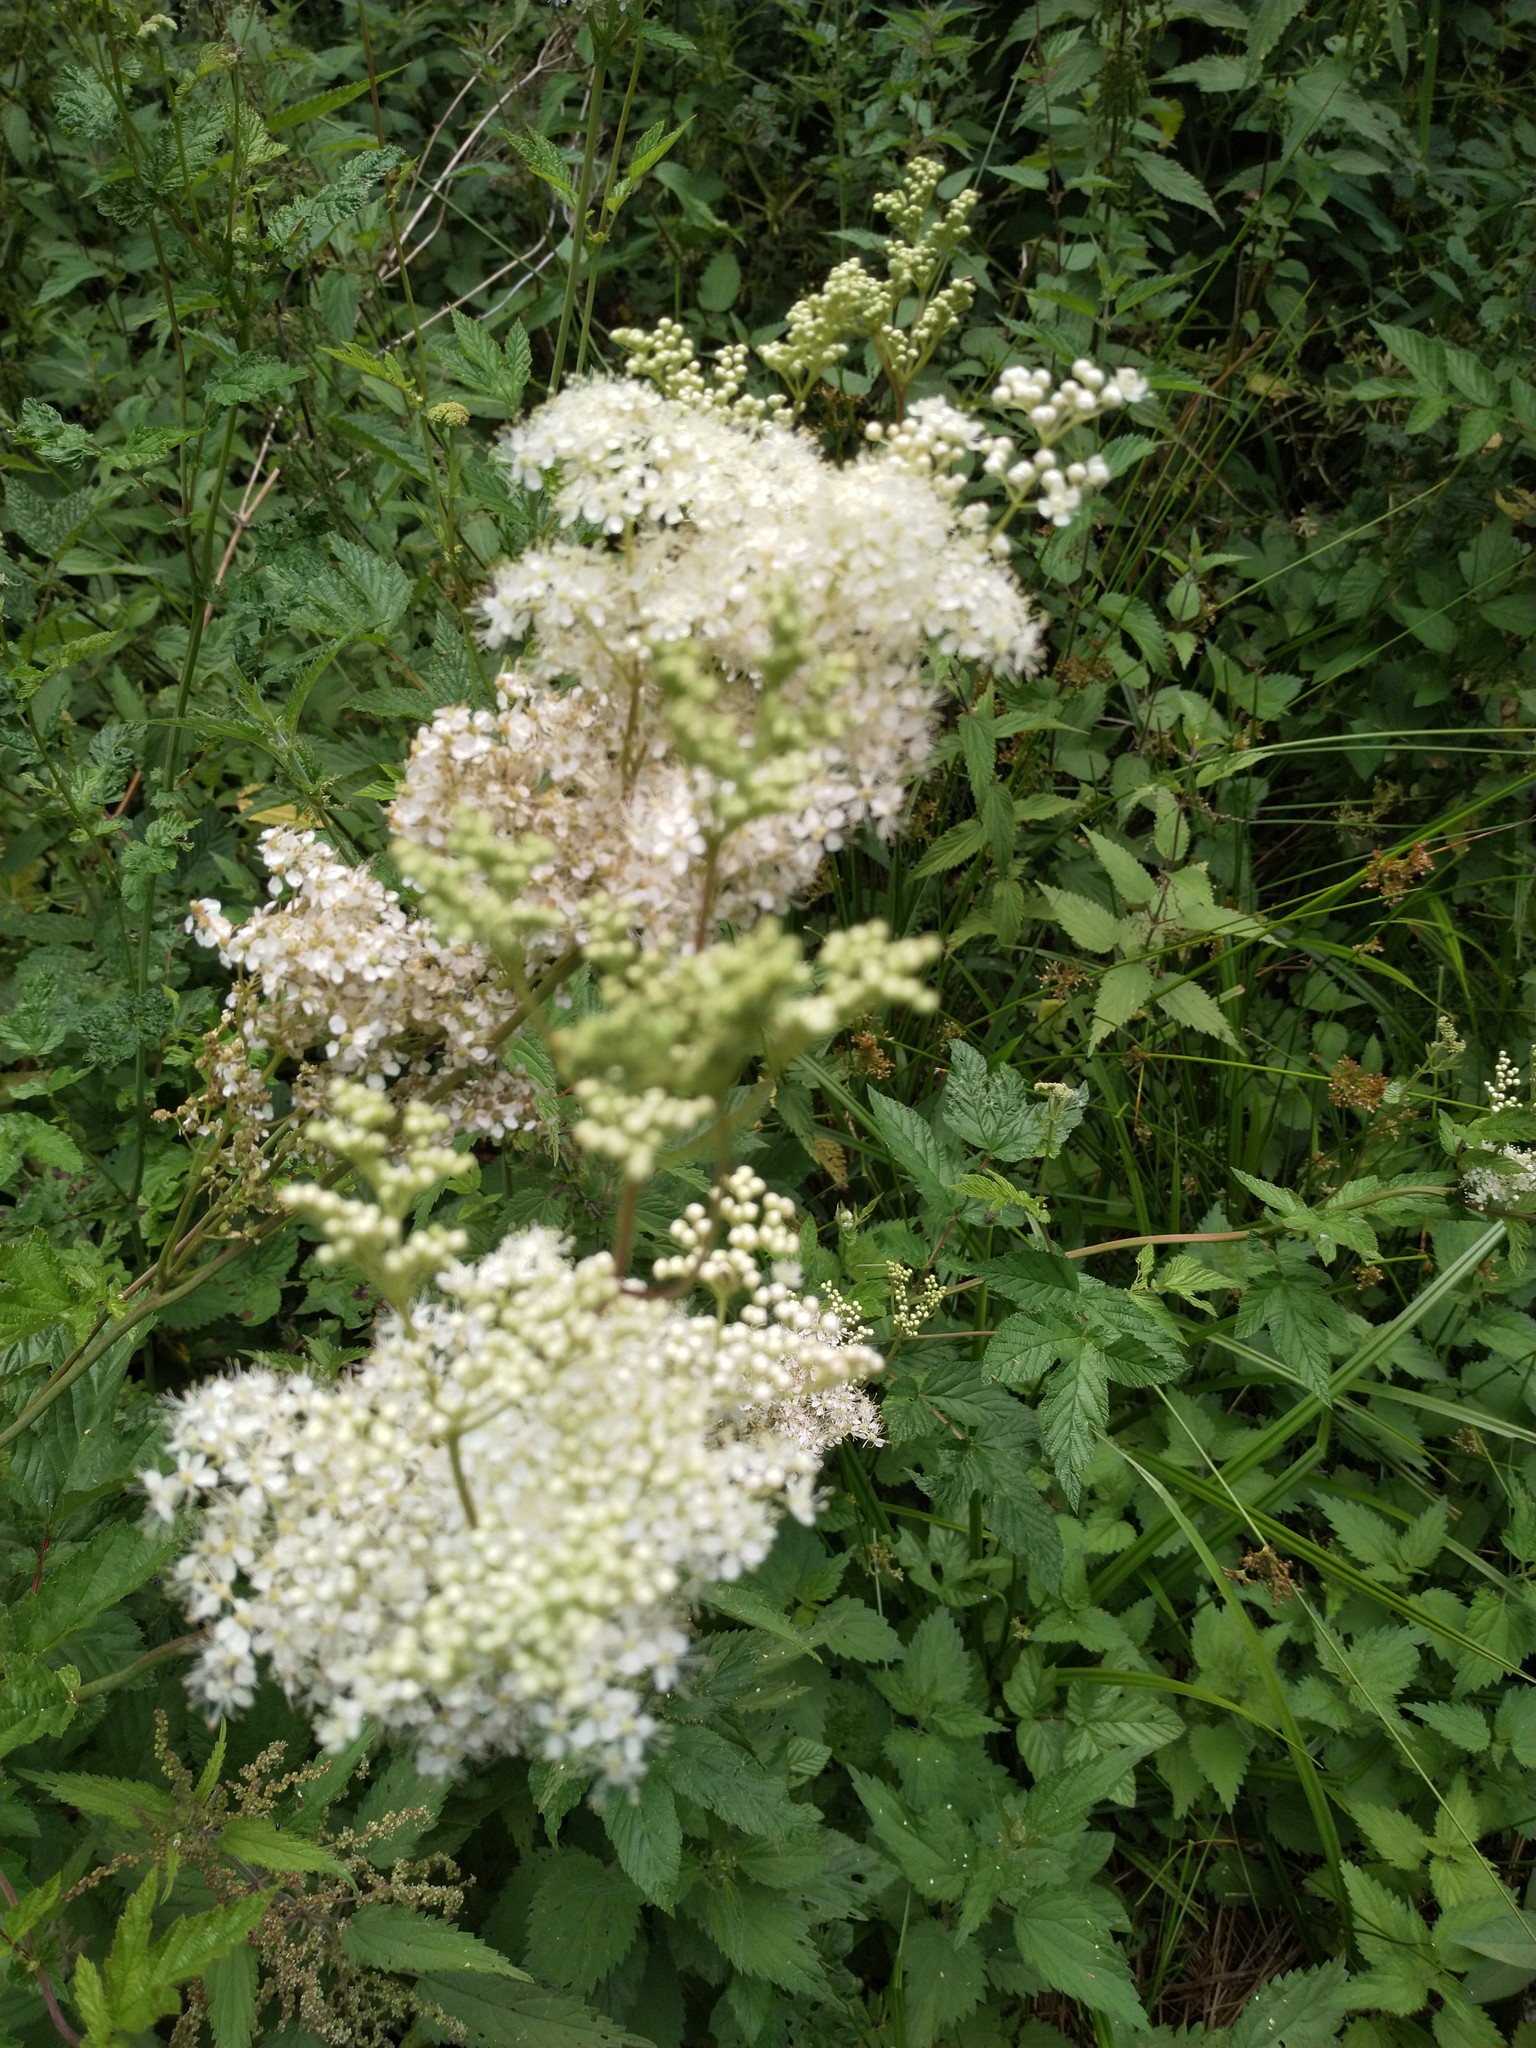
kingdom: Plantae
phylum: Tracheophyta
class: Magnoliopsida
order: Rosales
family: Rosaceae
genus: Filipendula
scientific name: Filipendula ulmaria
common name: Meadowsweet
